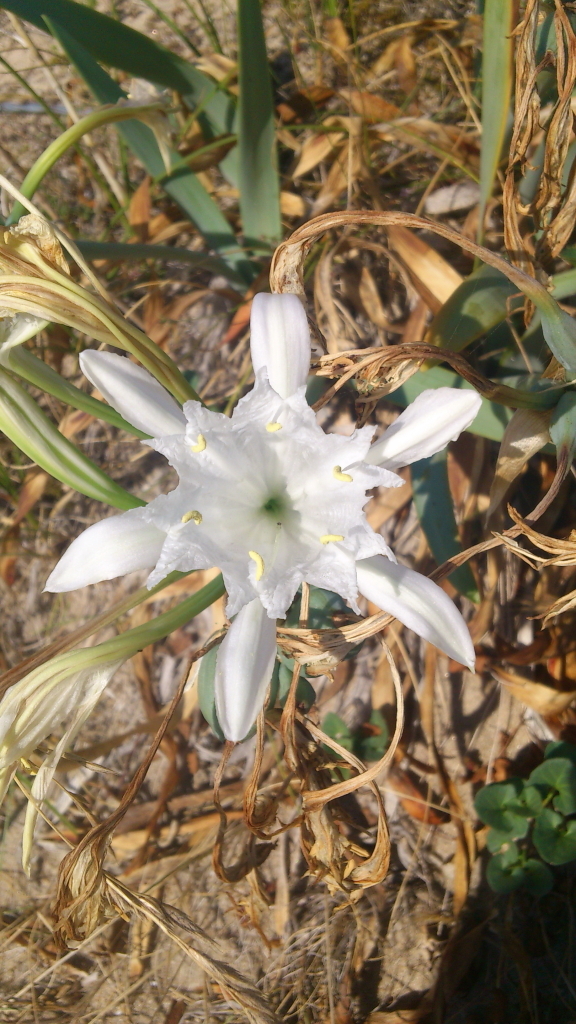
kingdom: Plantae
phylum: Tracheophyta
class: Liliopsida
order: Asparagales
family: Amaryllidaceae
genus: Pancratium
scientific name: Pancratium maritimum
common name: Sea-daffodil
